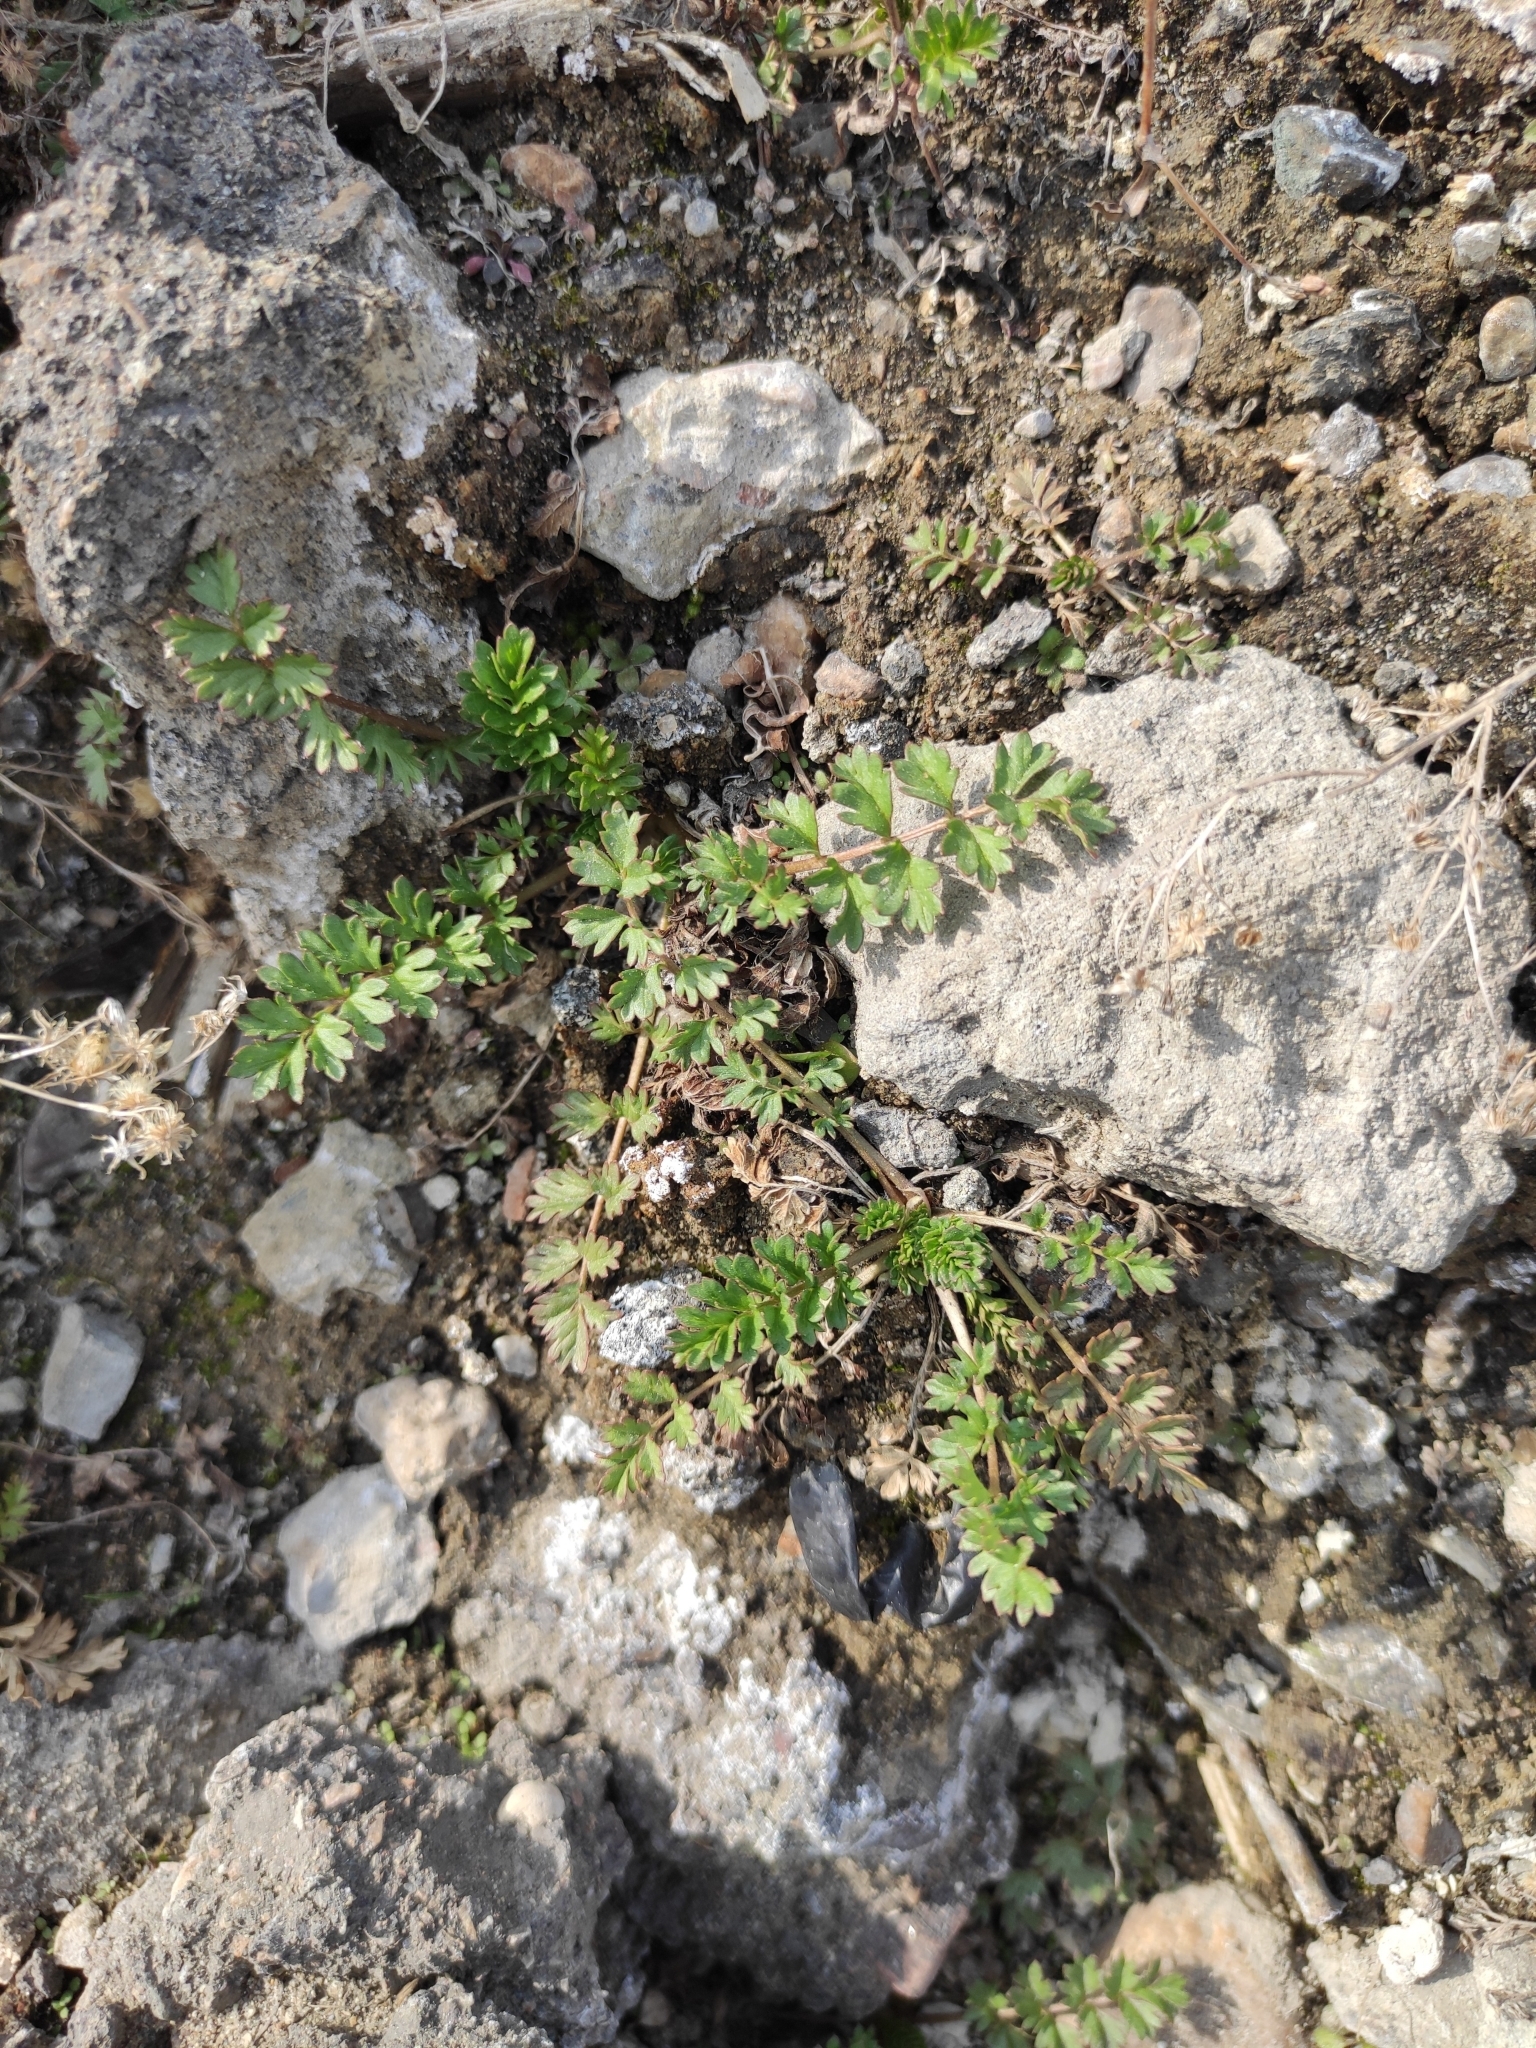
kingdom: Plantae
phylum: Tracheophyta
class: Magnoliopsida
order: Rosales
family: Rosaceae
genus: Potentilla
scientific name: Potentilla supina
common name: Prostrate cinquefoil
